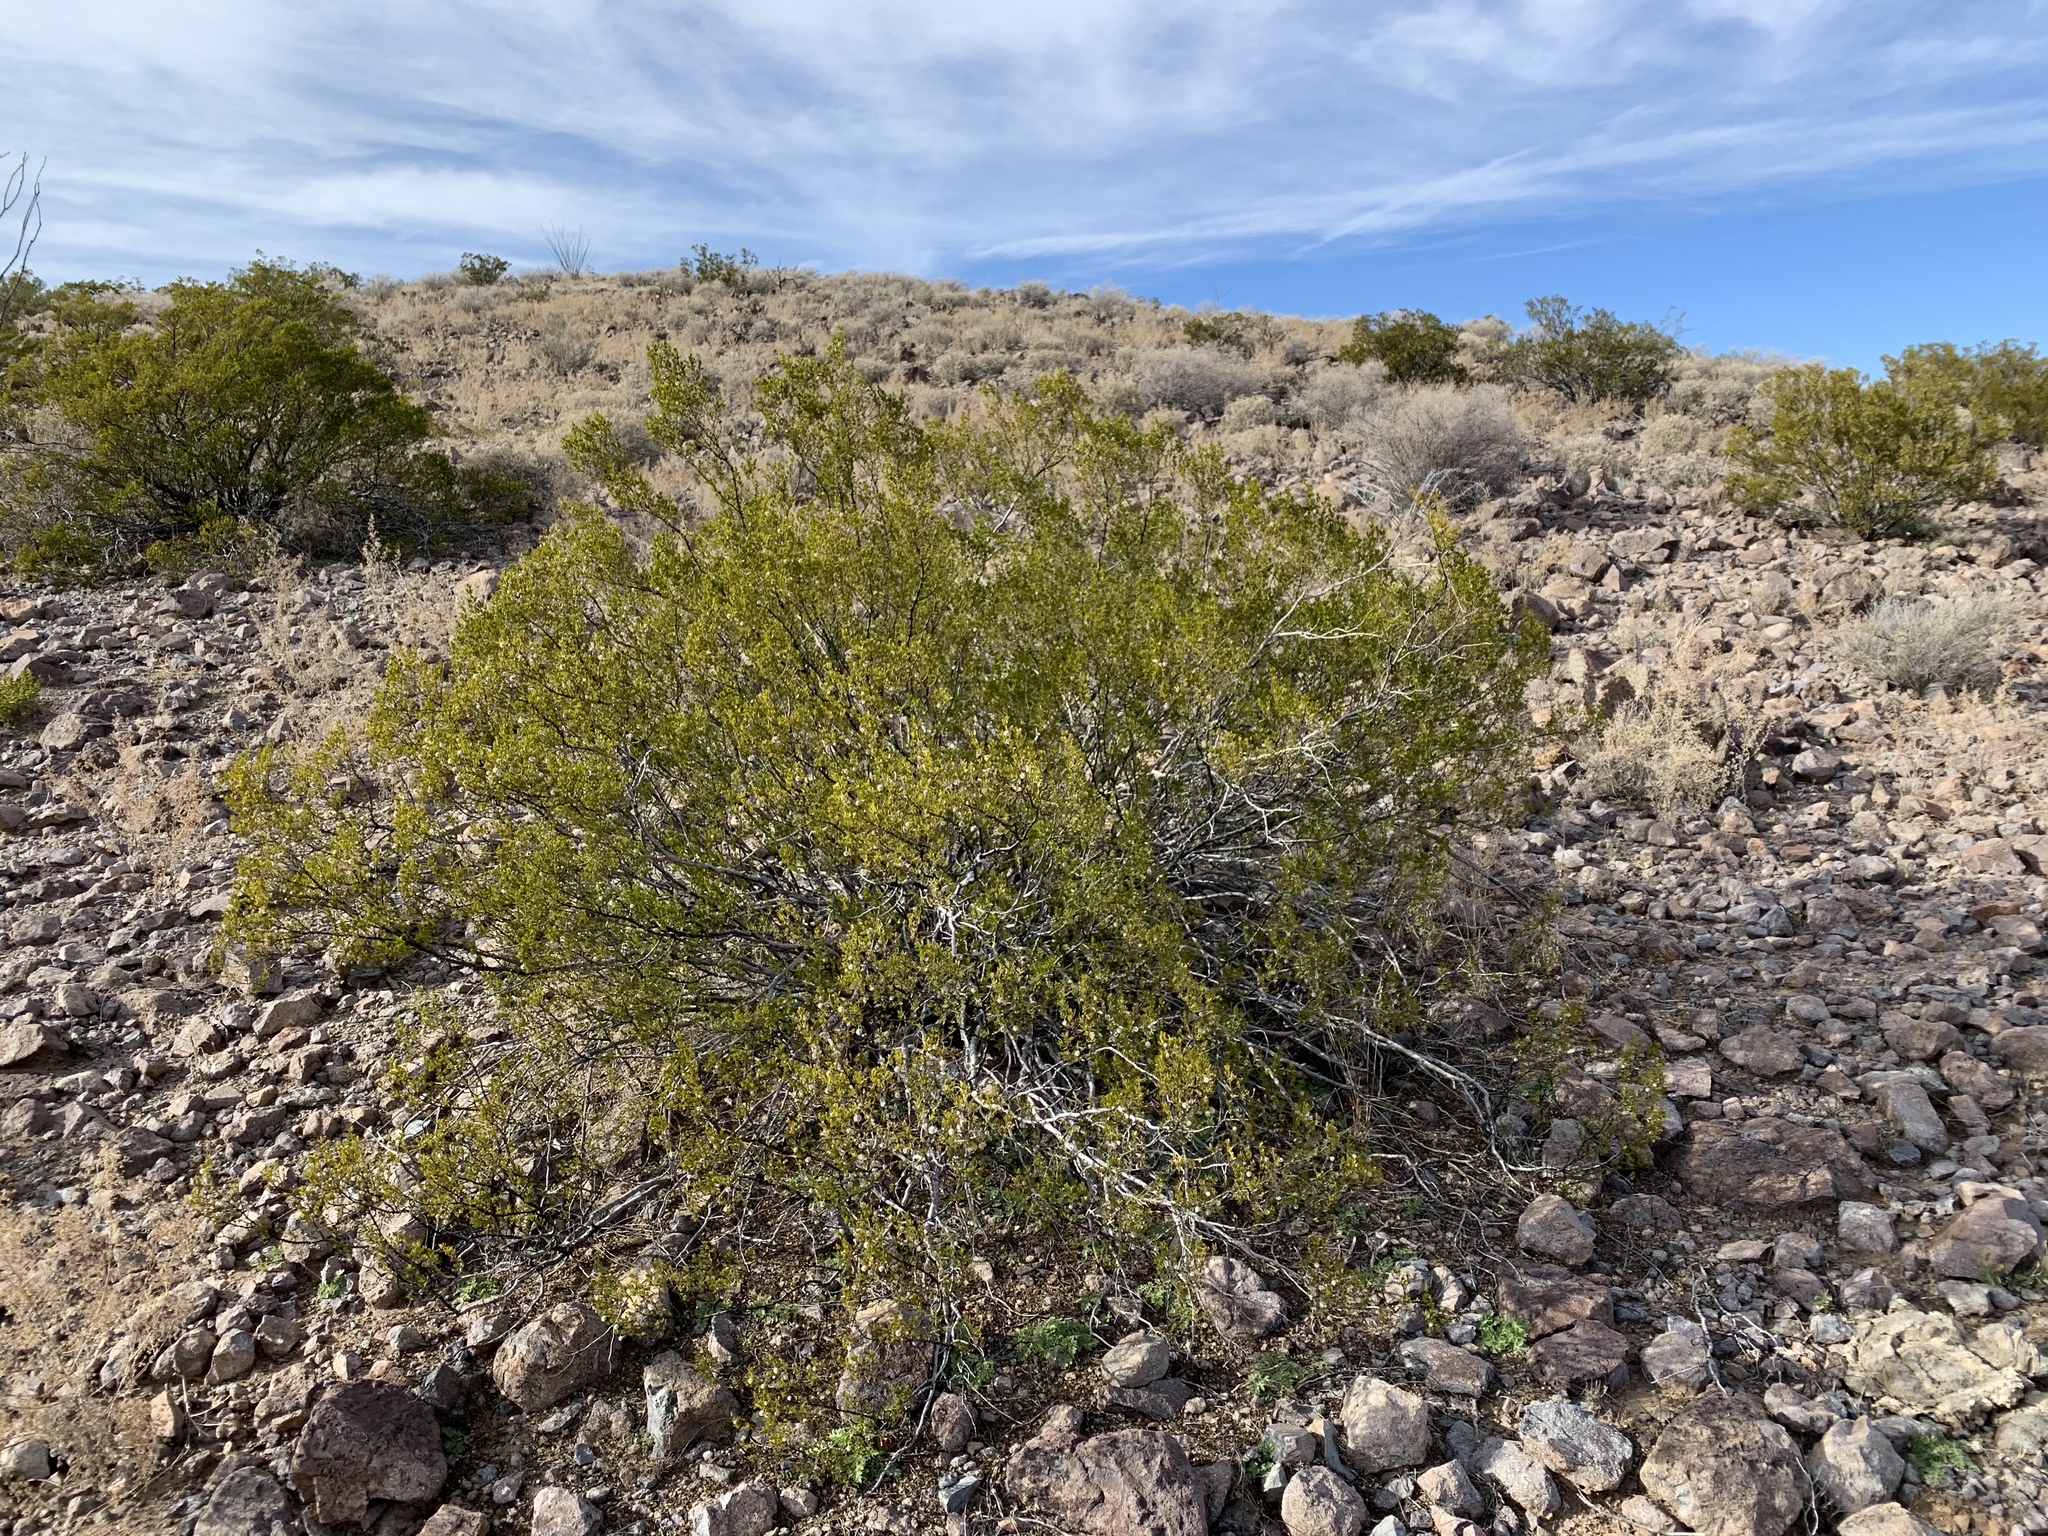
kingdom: Plantae
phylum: Tracheophyta
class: Magnoliopsida
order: Zygophyllales
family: Zygophyllaceae
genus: Larrea
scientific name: Larrea tridentata
